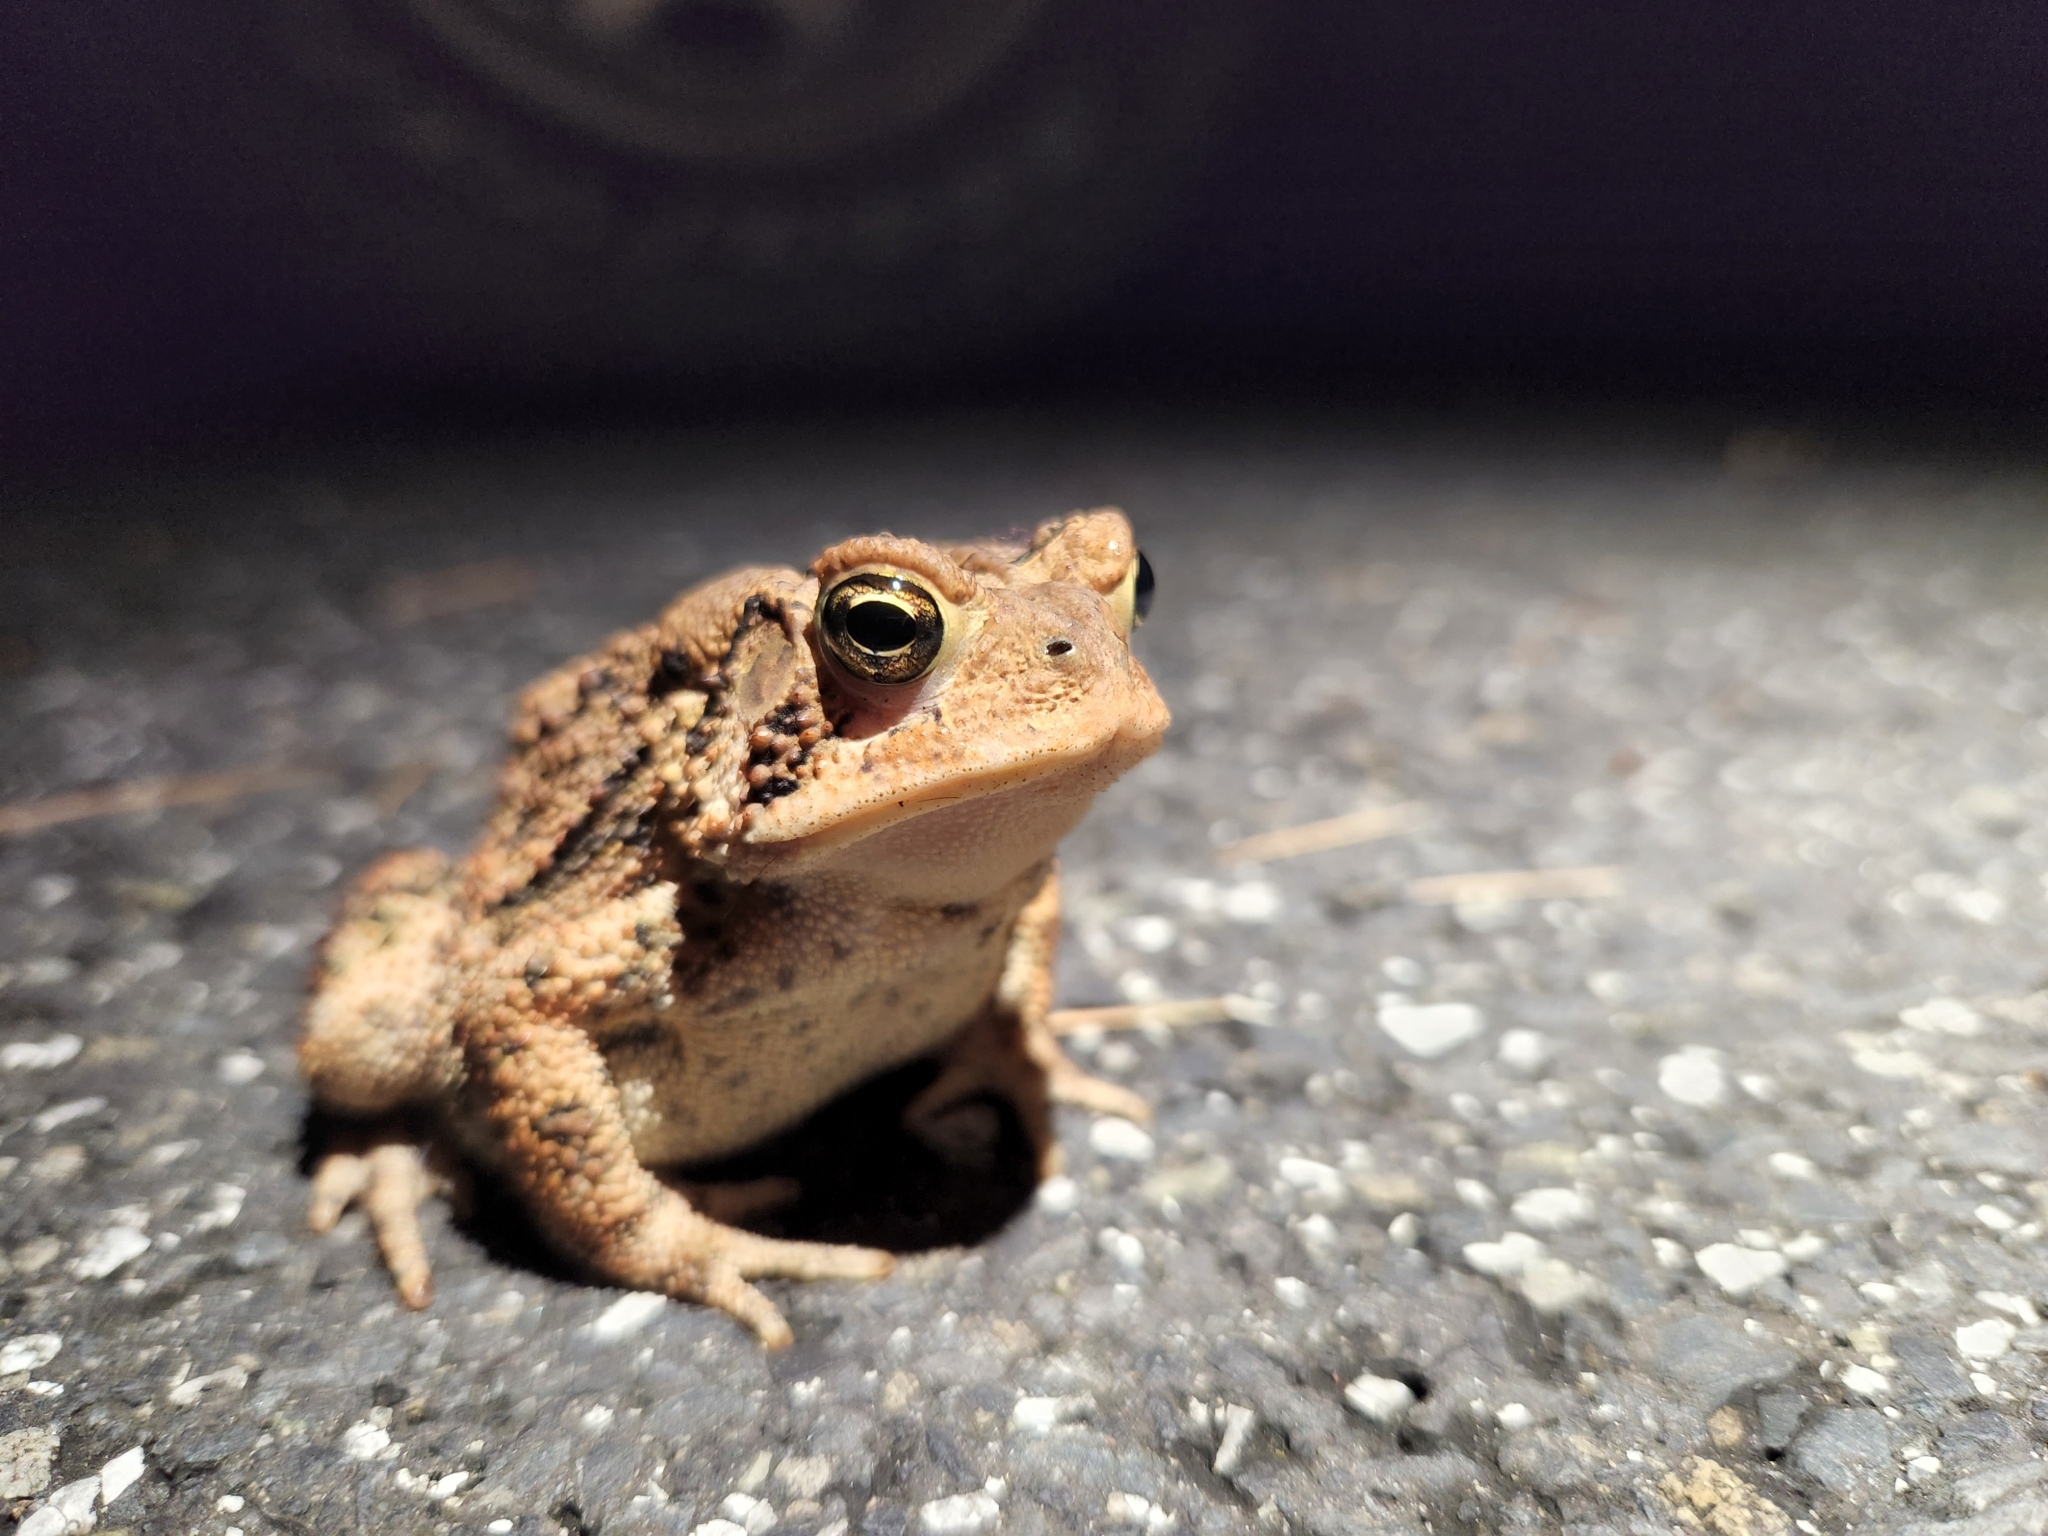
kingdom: Animalia
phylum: Chordata
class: Amphibia
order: Anura
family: Bufonidae
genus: Anaxyrus
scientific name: Anaxyrus americanus
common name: American toad
